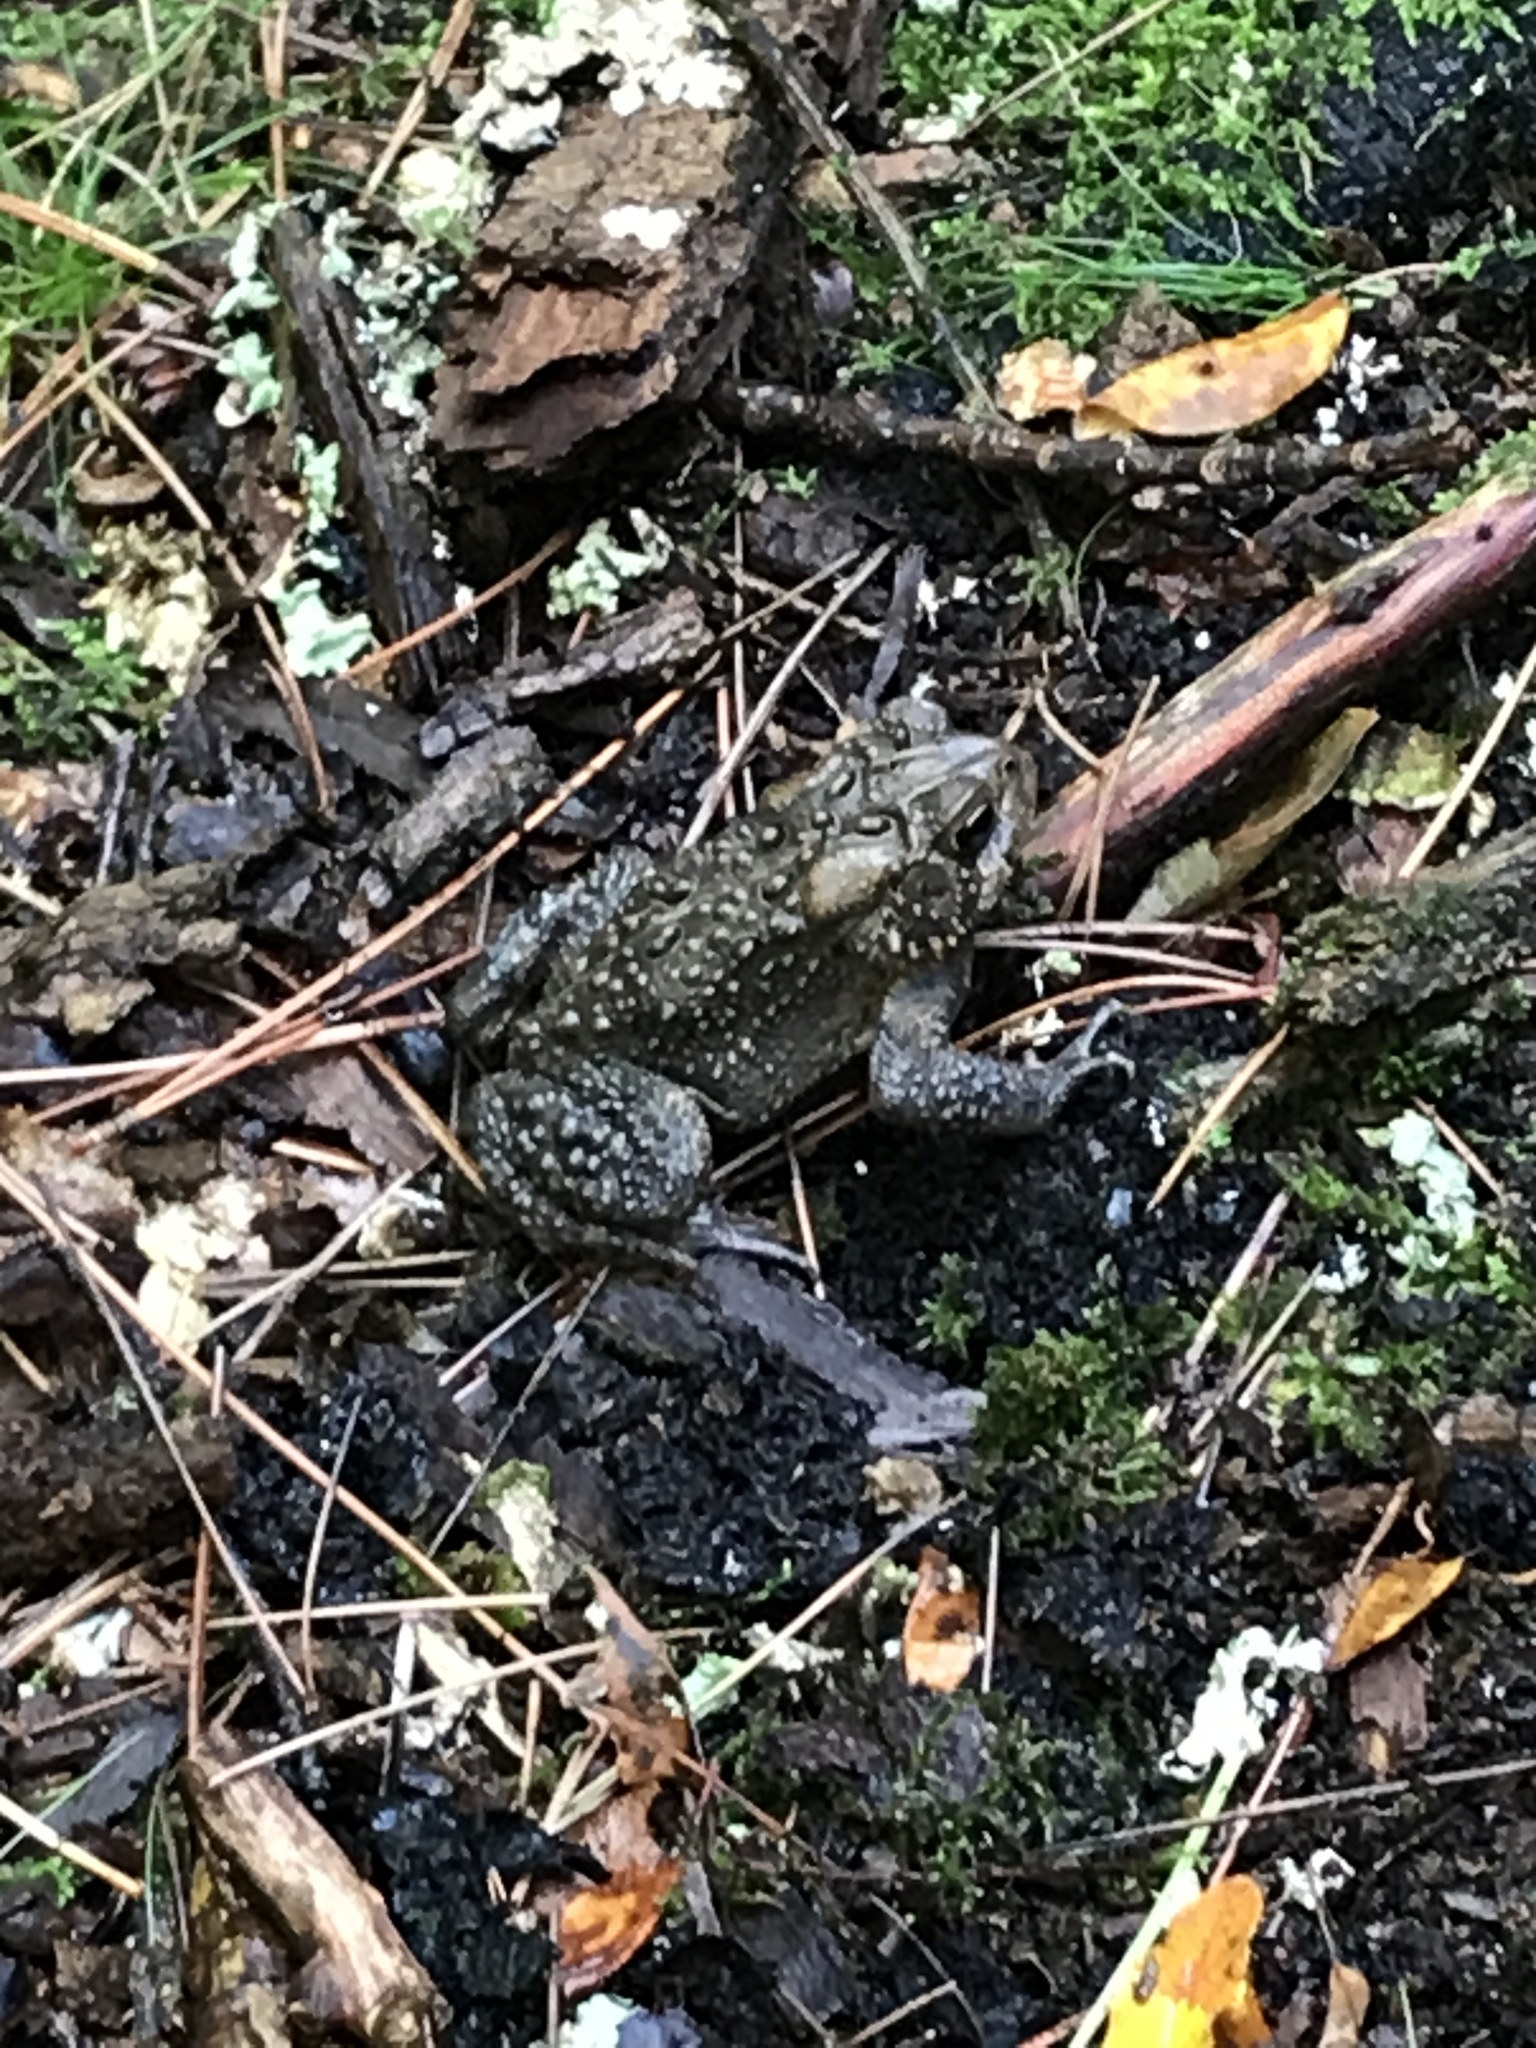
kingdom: Animalia
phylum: Chordata
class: Amphibia
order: Anura
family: Bufonidae
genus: Anaxyrus
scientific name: Anaxyrus americanus
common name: American toad
